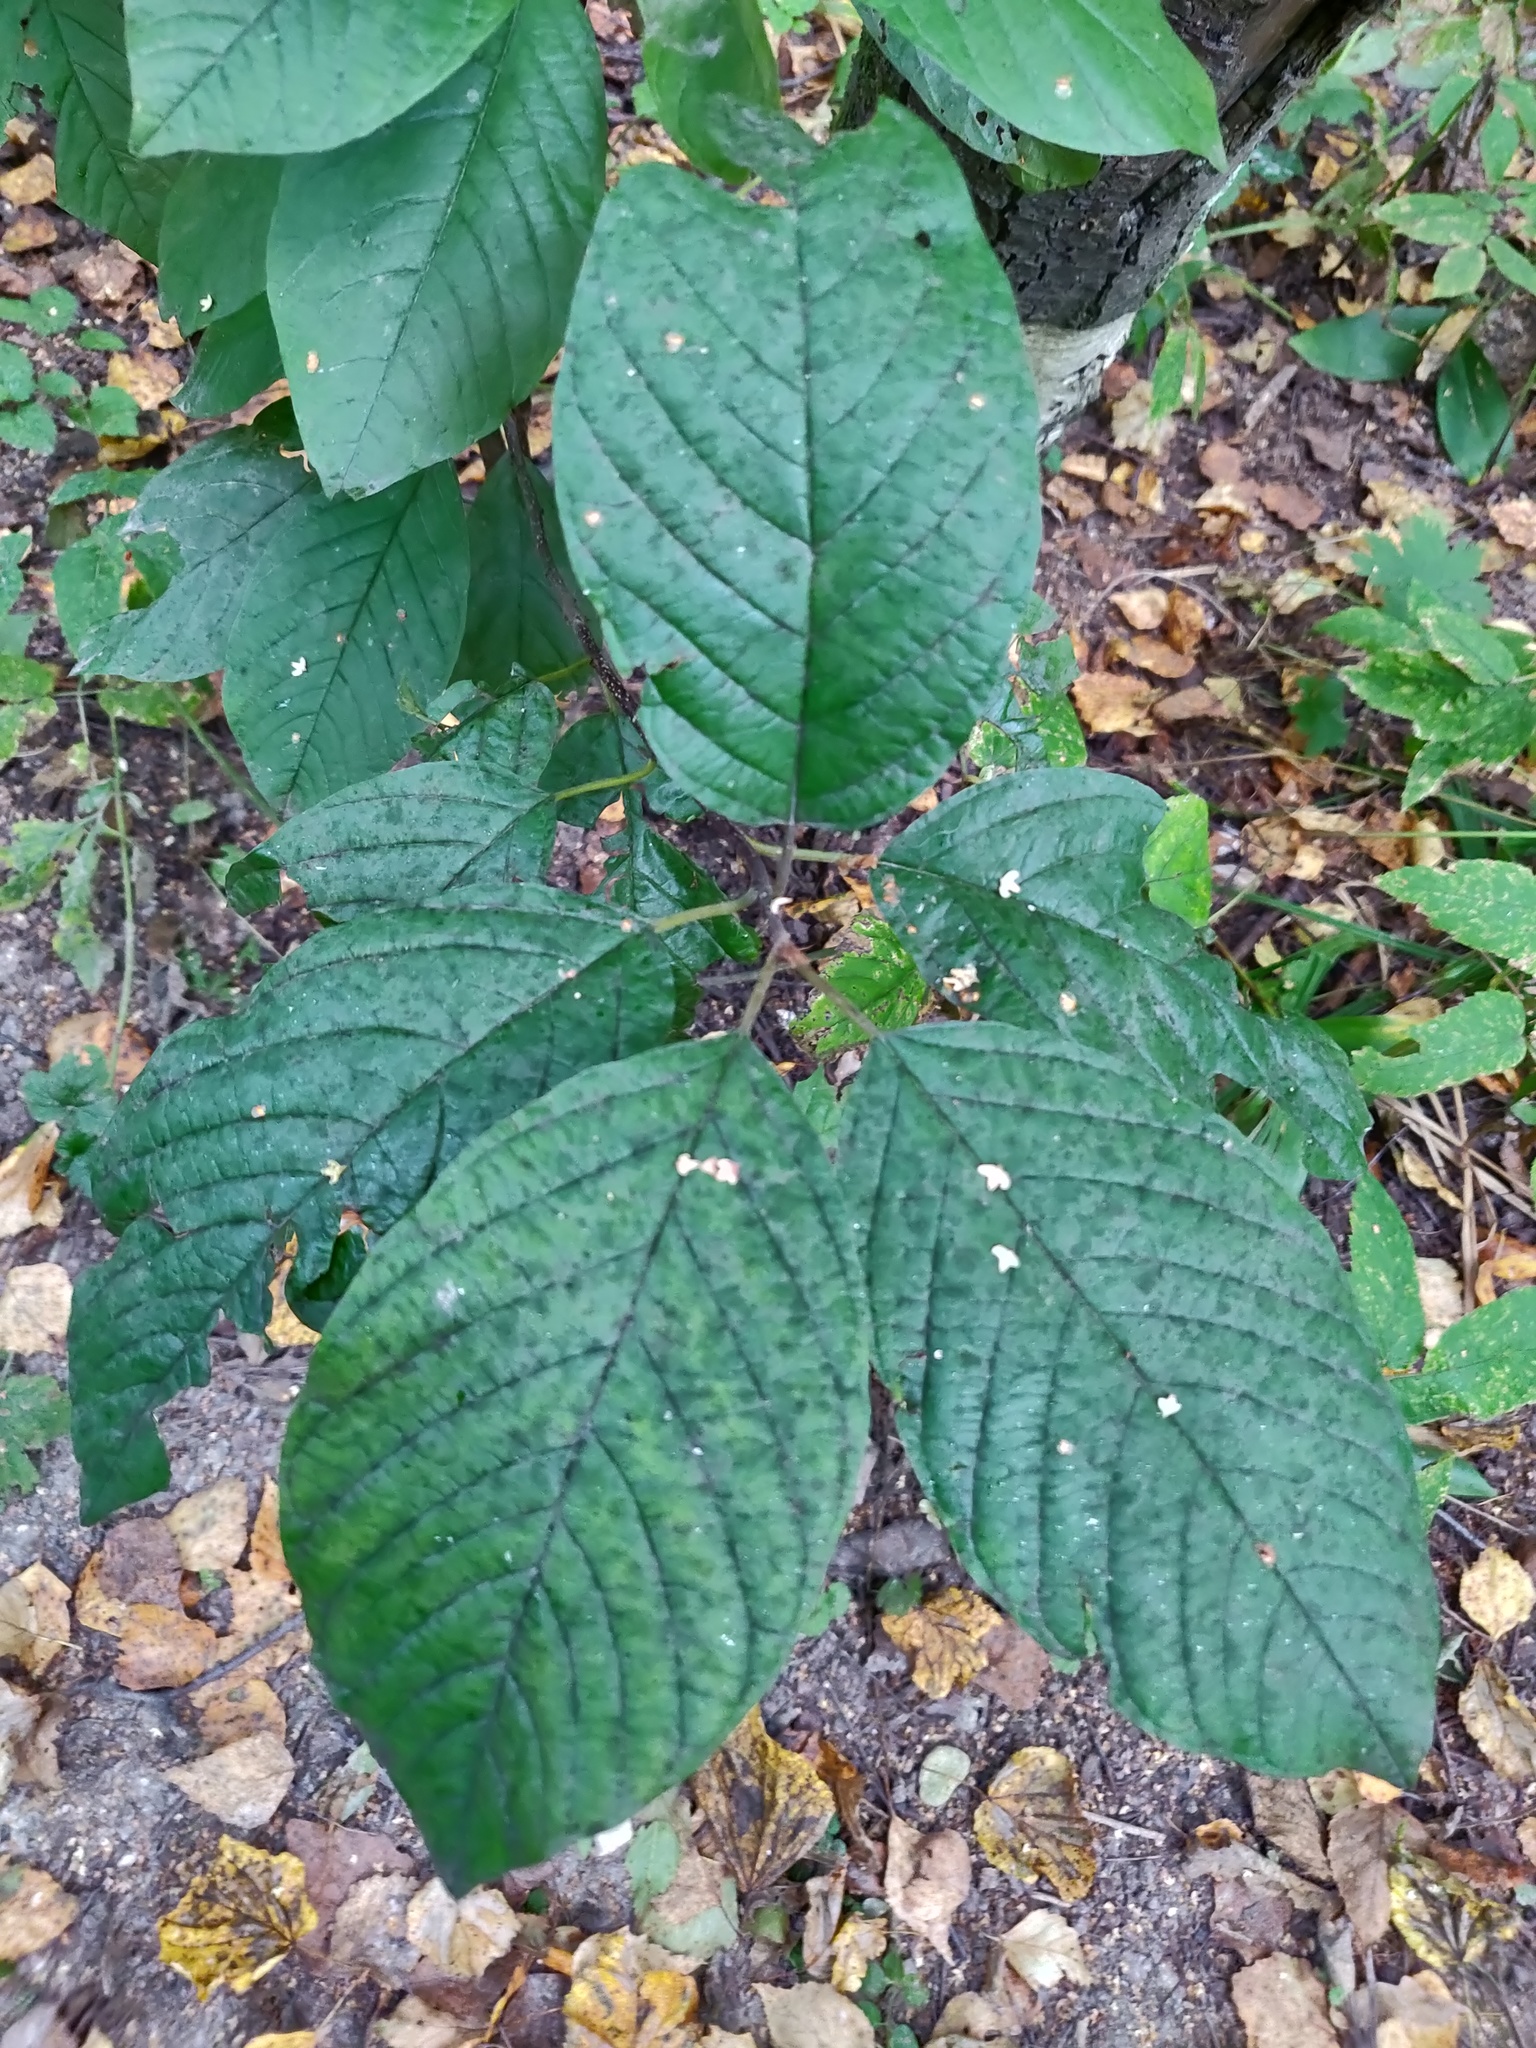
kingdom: Plantae
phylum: Tracheophyta
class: Magnoliopsida
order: Rosales
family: Rosaceae
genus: Prunus
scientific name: Prunus padus
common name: Bird cherry
